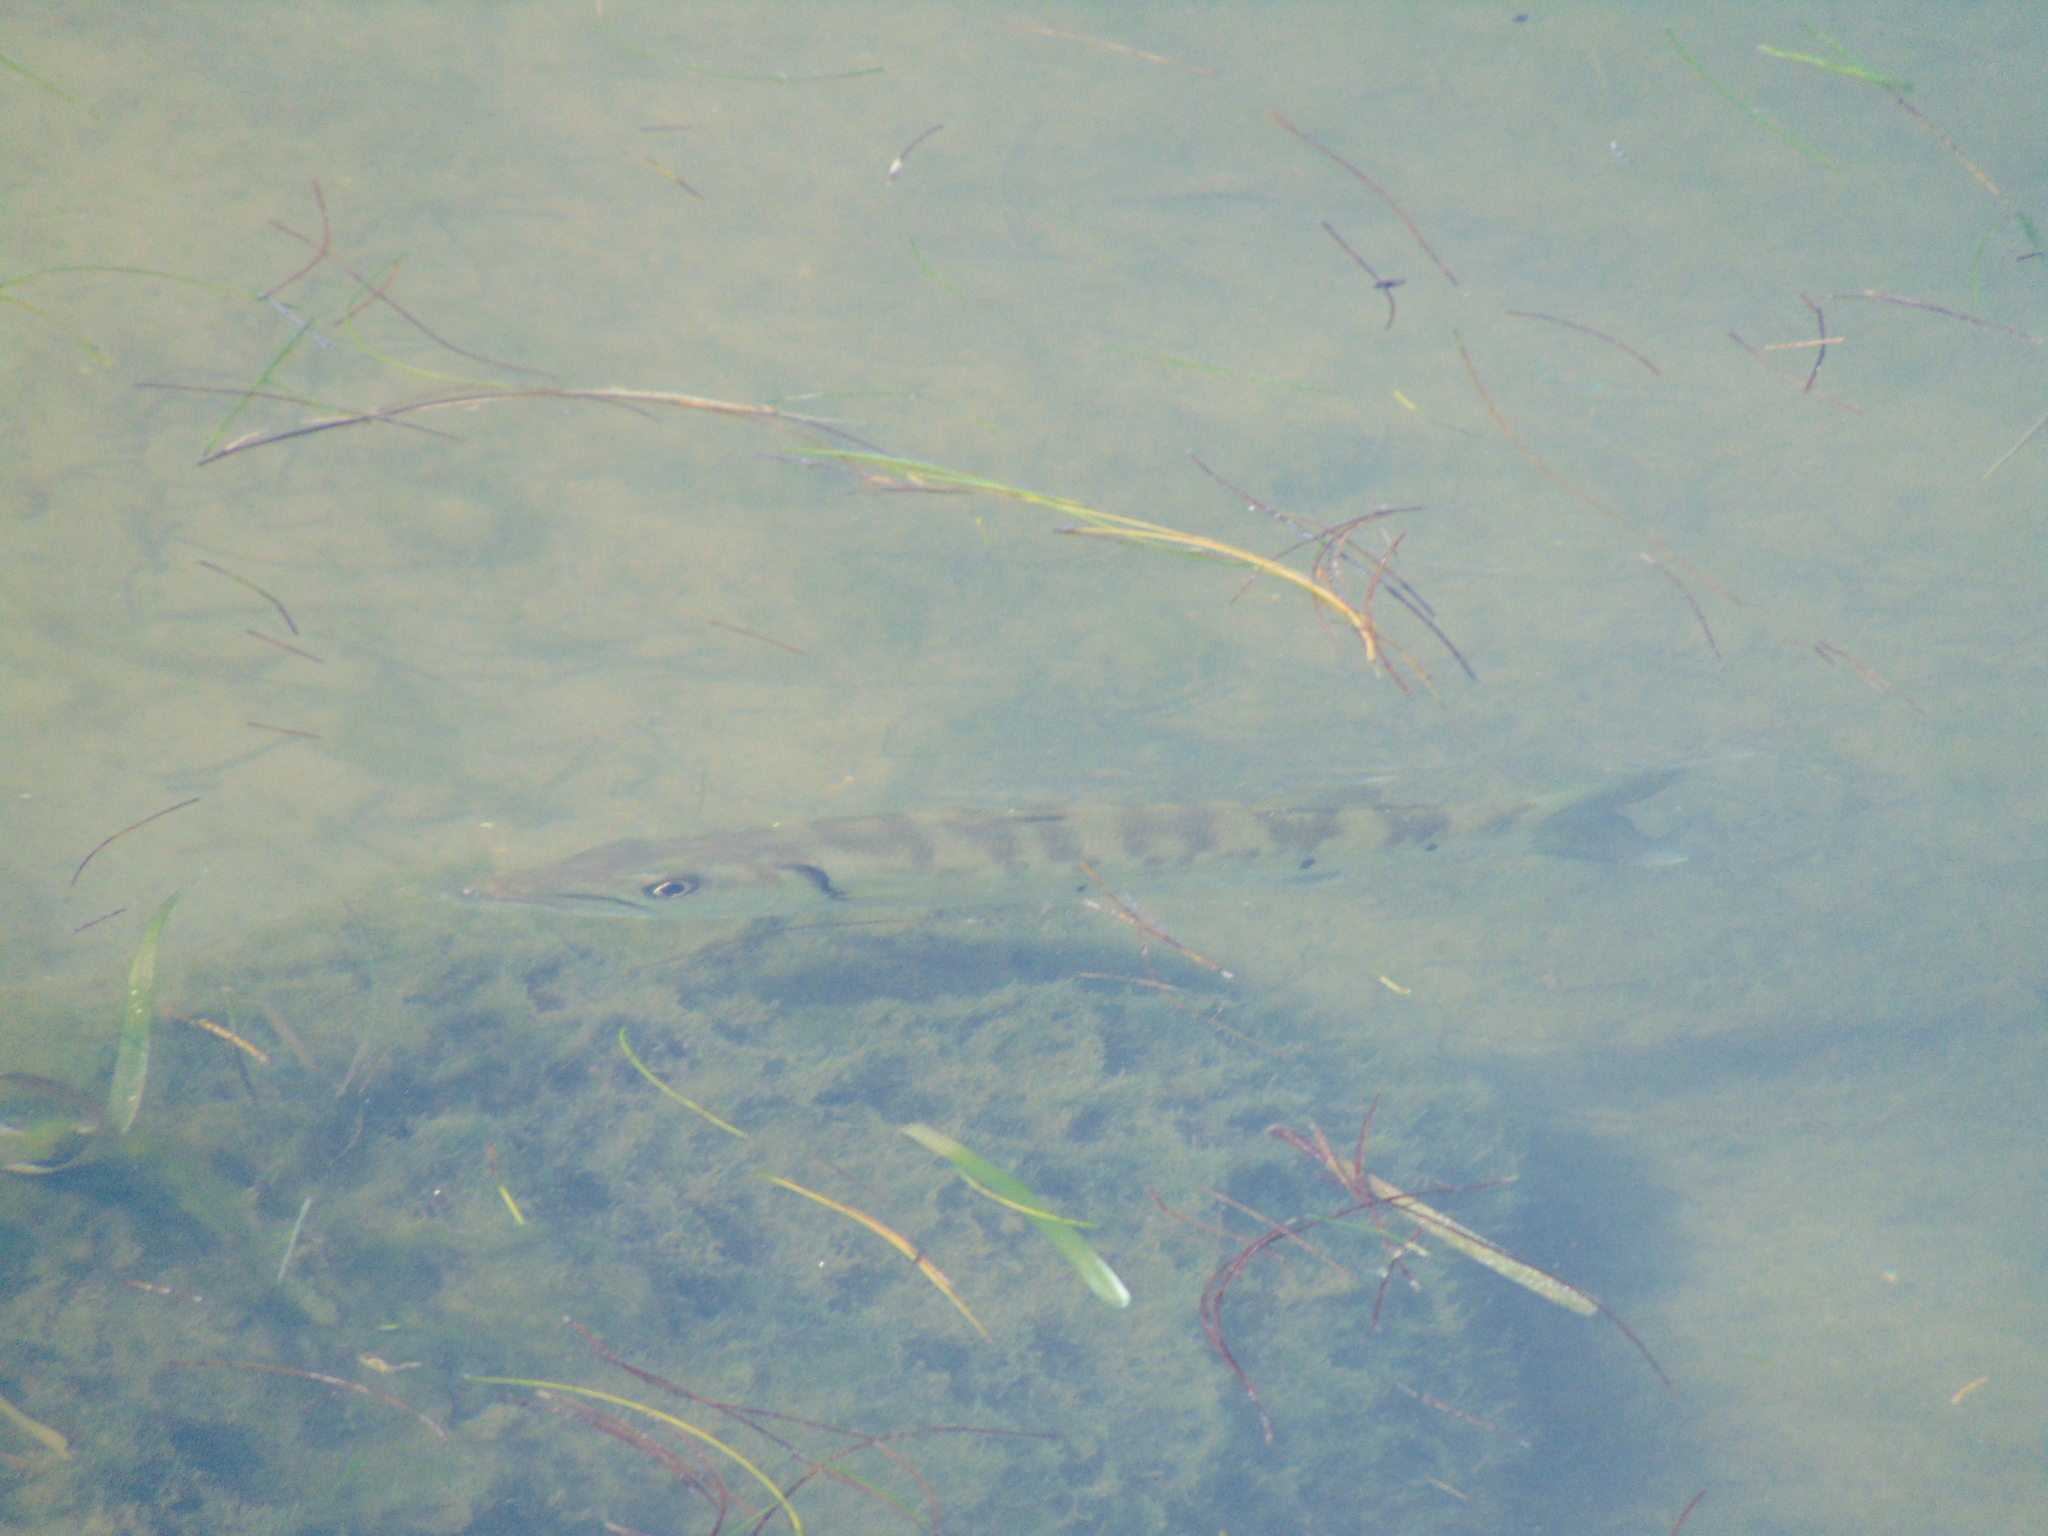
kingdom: Animalia
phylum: Chordata
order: Perciformes
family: Sphyraenidae
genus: Sphyraena
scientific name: Sphyraena barracuda
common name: Great barracuda
